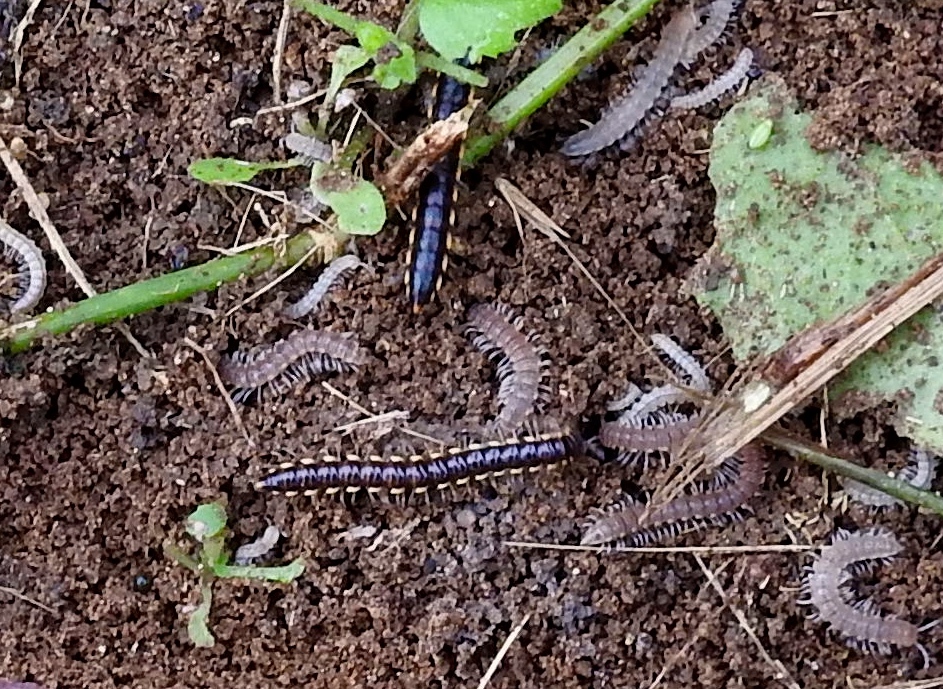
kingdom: Animalia
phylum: Arthropoda
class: Diplopoda
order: Polydesmida
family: Paradoxosomatidae
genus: Orthomorpha
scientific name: Orthomorpha coarctata
